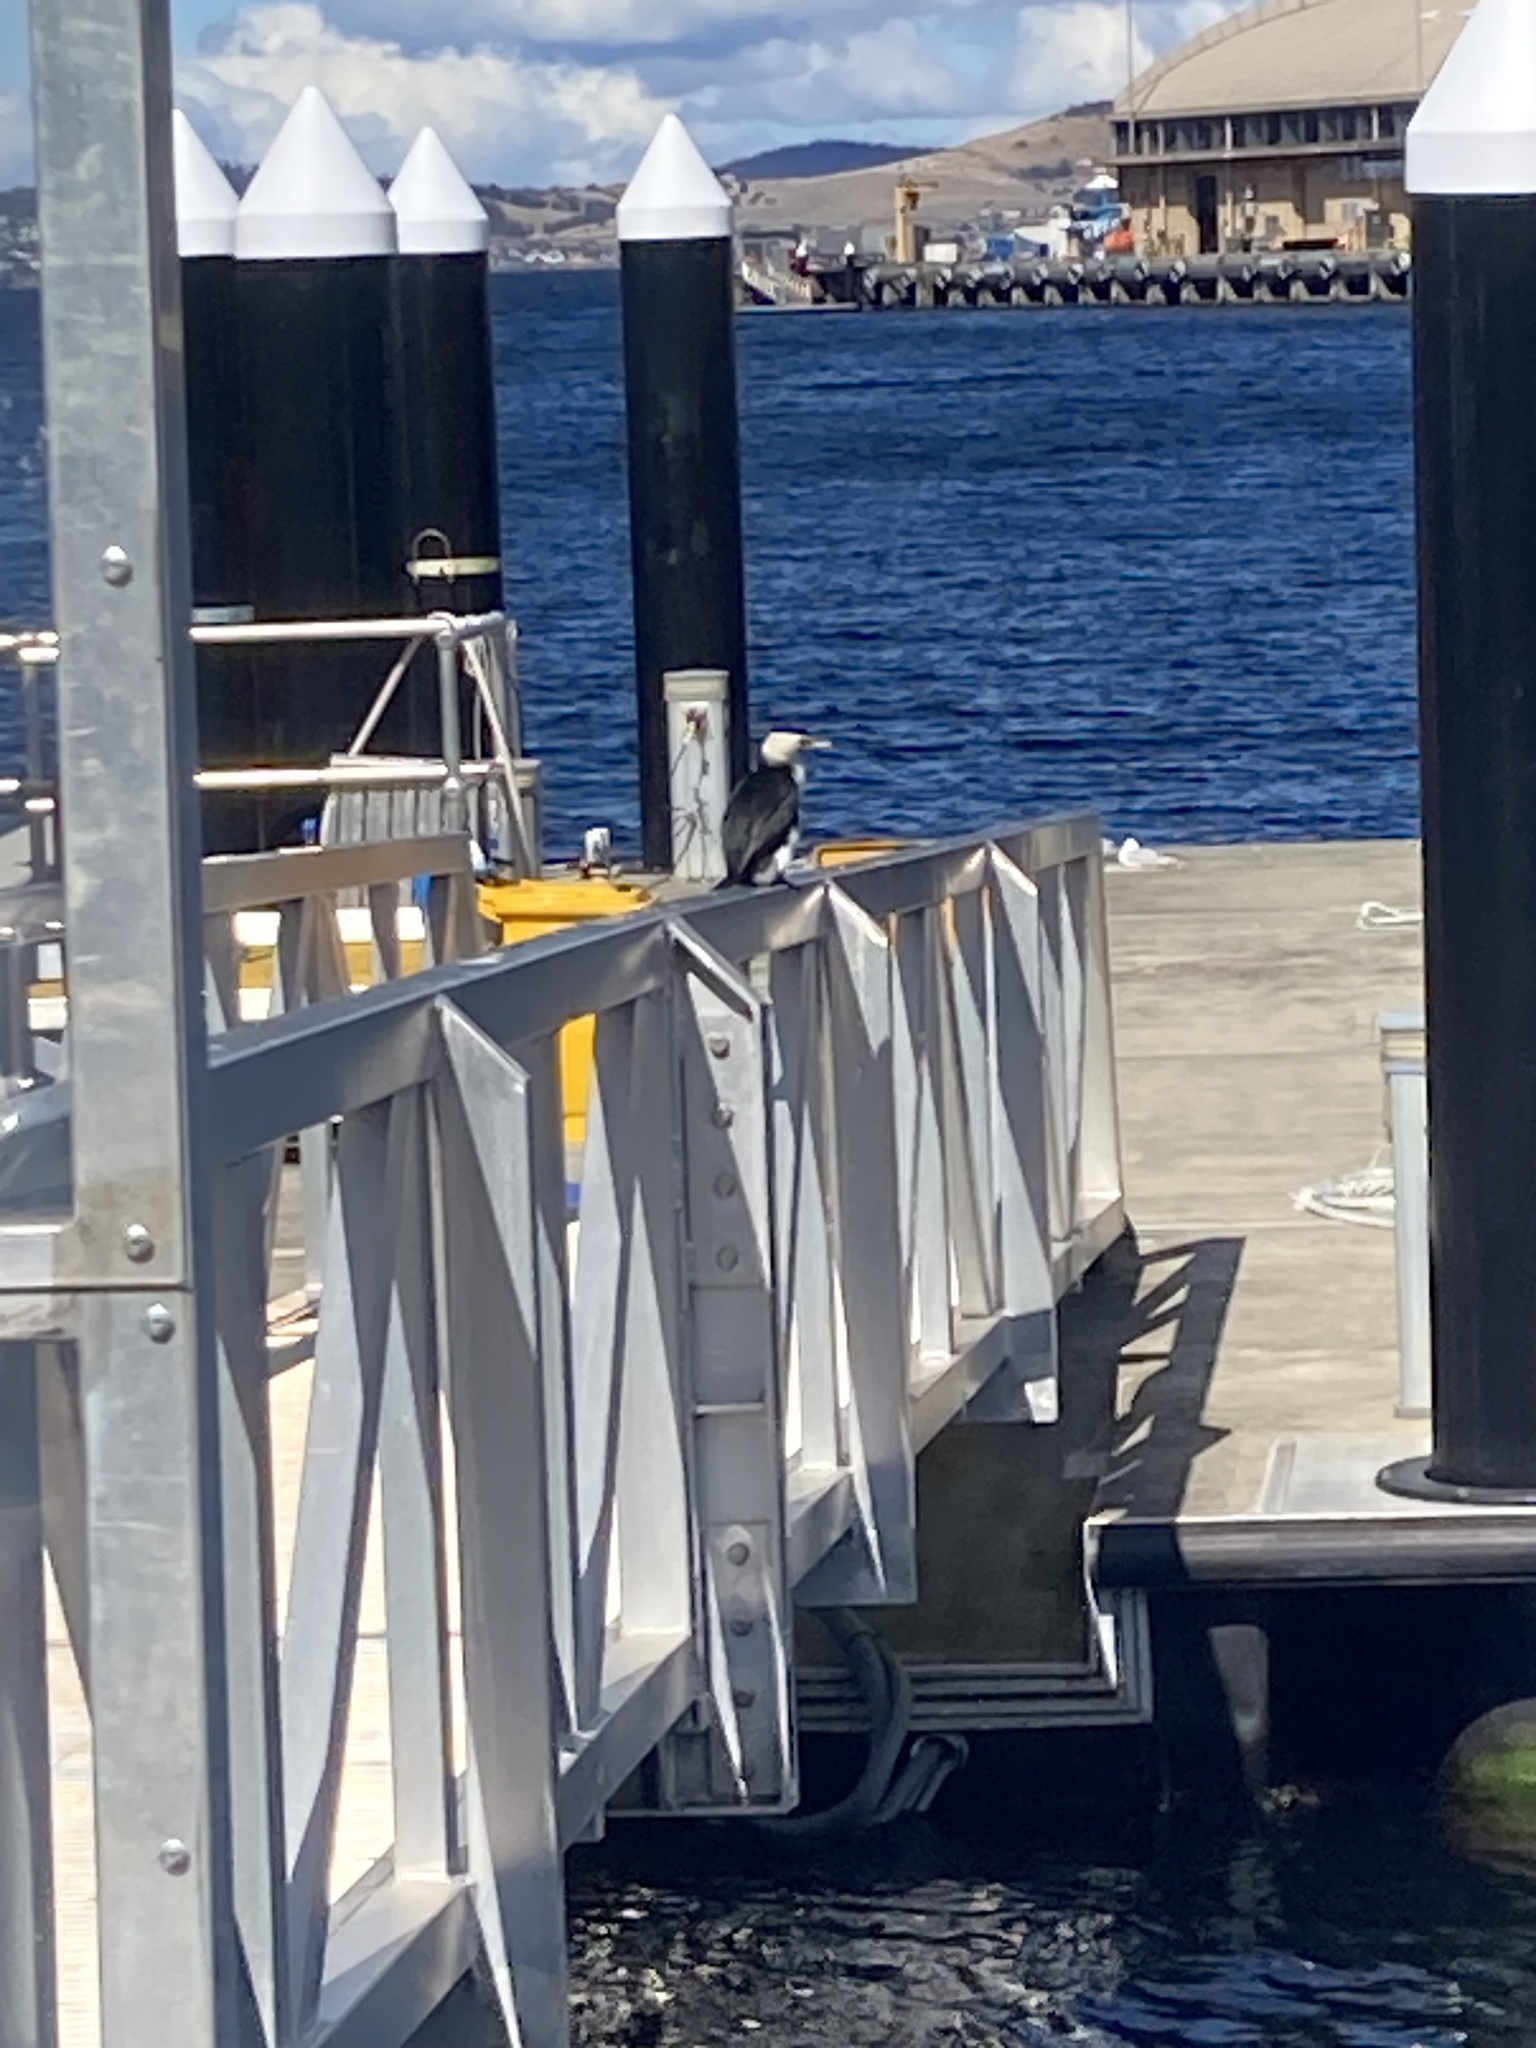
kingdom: Animalia
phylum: Chordata
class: Aves
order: Suliformes
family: Phalacrocoracidae
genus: Microcarbo
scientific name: Microcarbo melanoleucos
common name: Little pied cormorant
